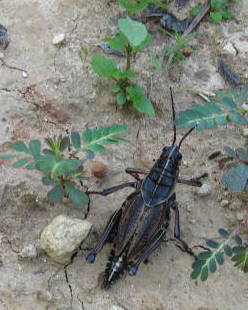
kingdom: Animalia
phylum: Arthropoda
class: Insecta
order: Orthoptera
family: Romaleidae
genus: Romalea
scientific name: Romalea microptera
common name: Eastern lubber grasshopper
